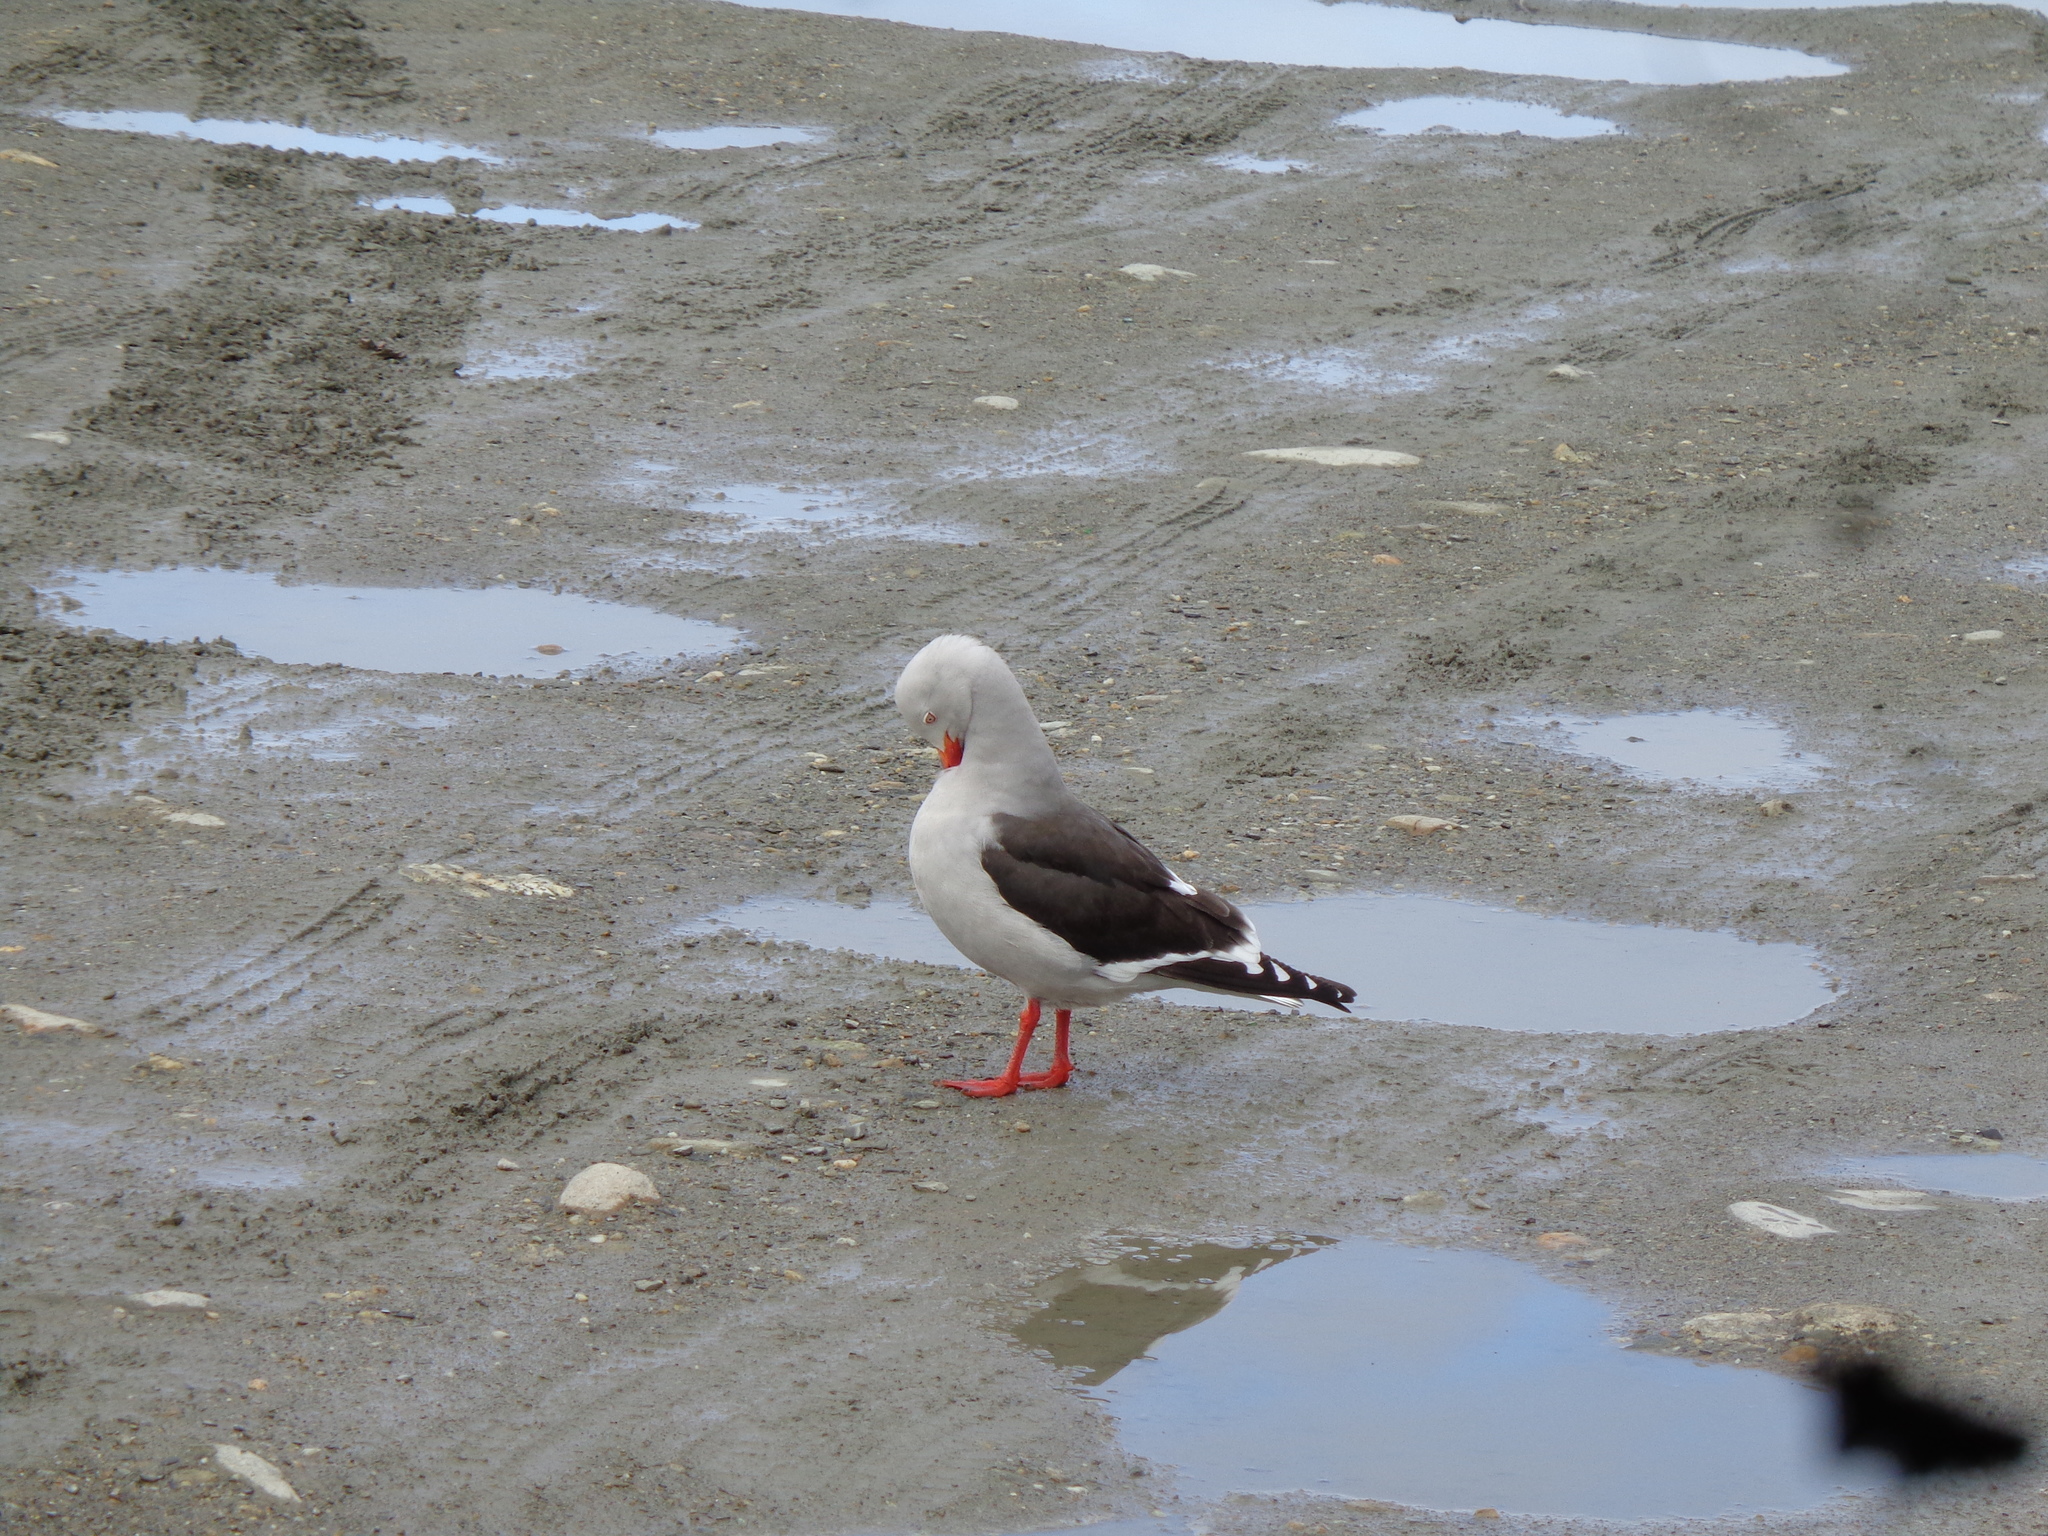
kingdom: Animalia
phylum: Chordata
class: Aves
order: Charadriiformes
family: Laridae
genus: Leucophaeus
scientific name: Leucophaeus scoresbii
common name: Dolphin gull
